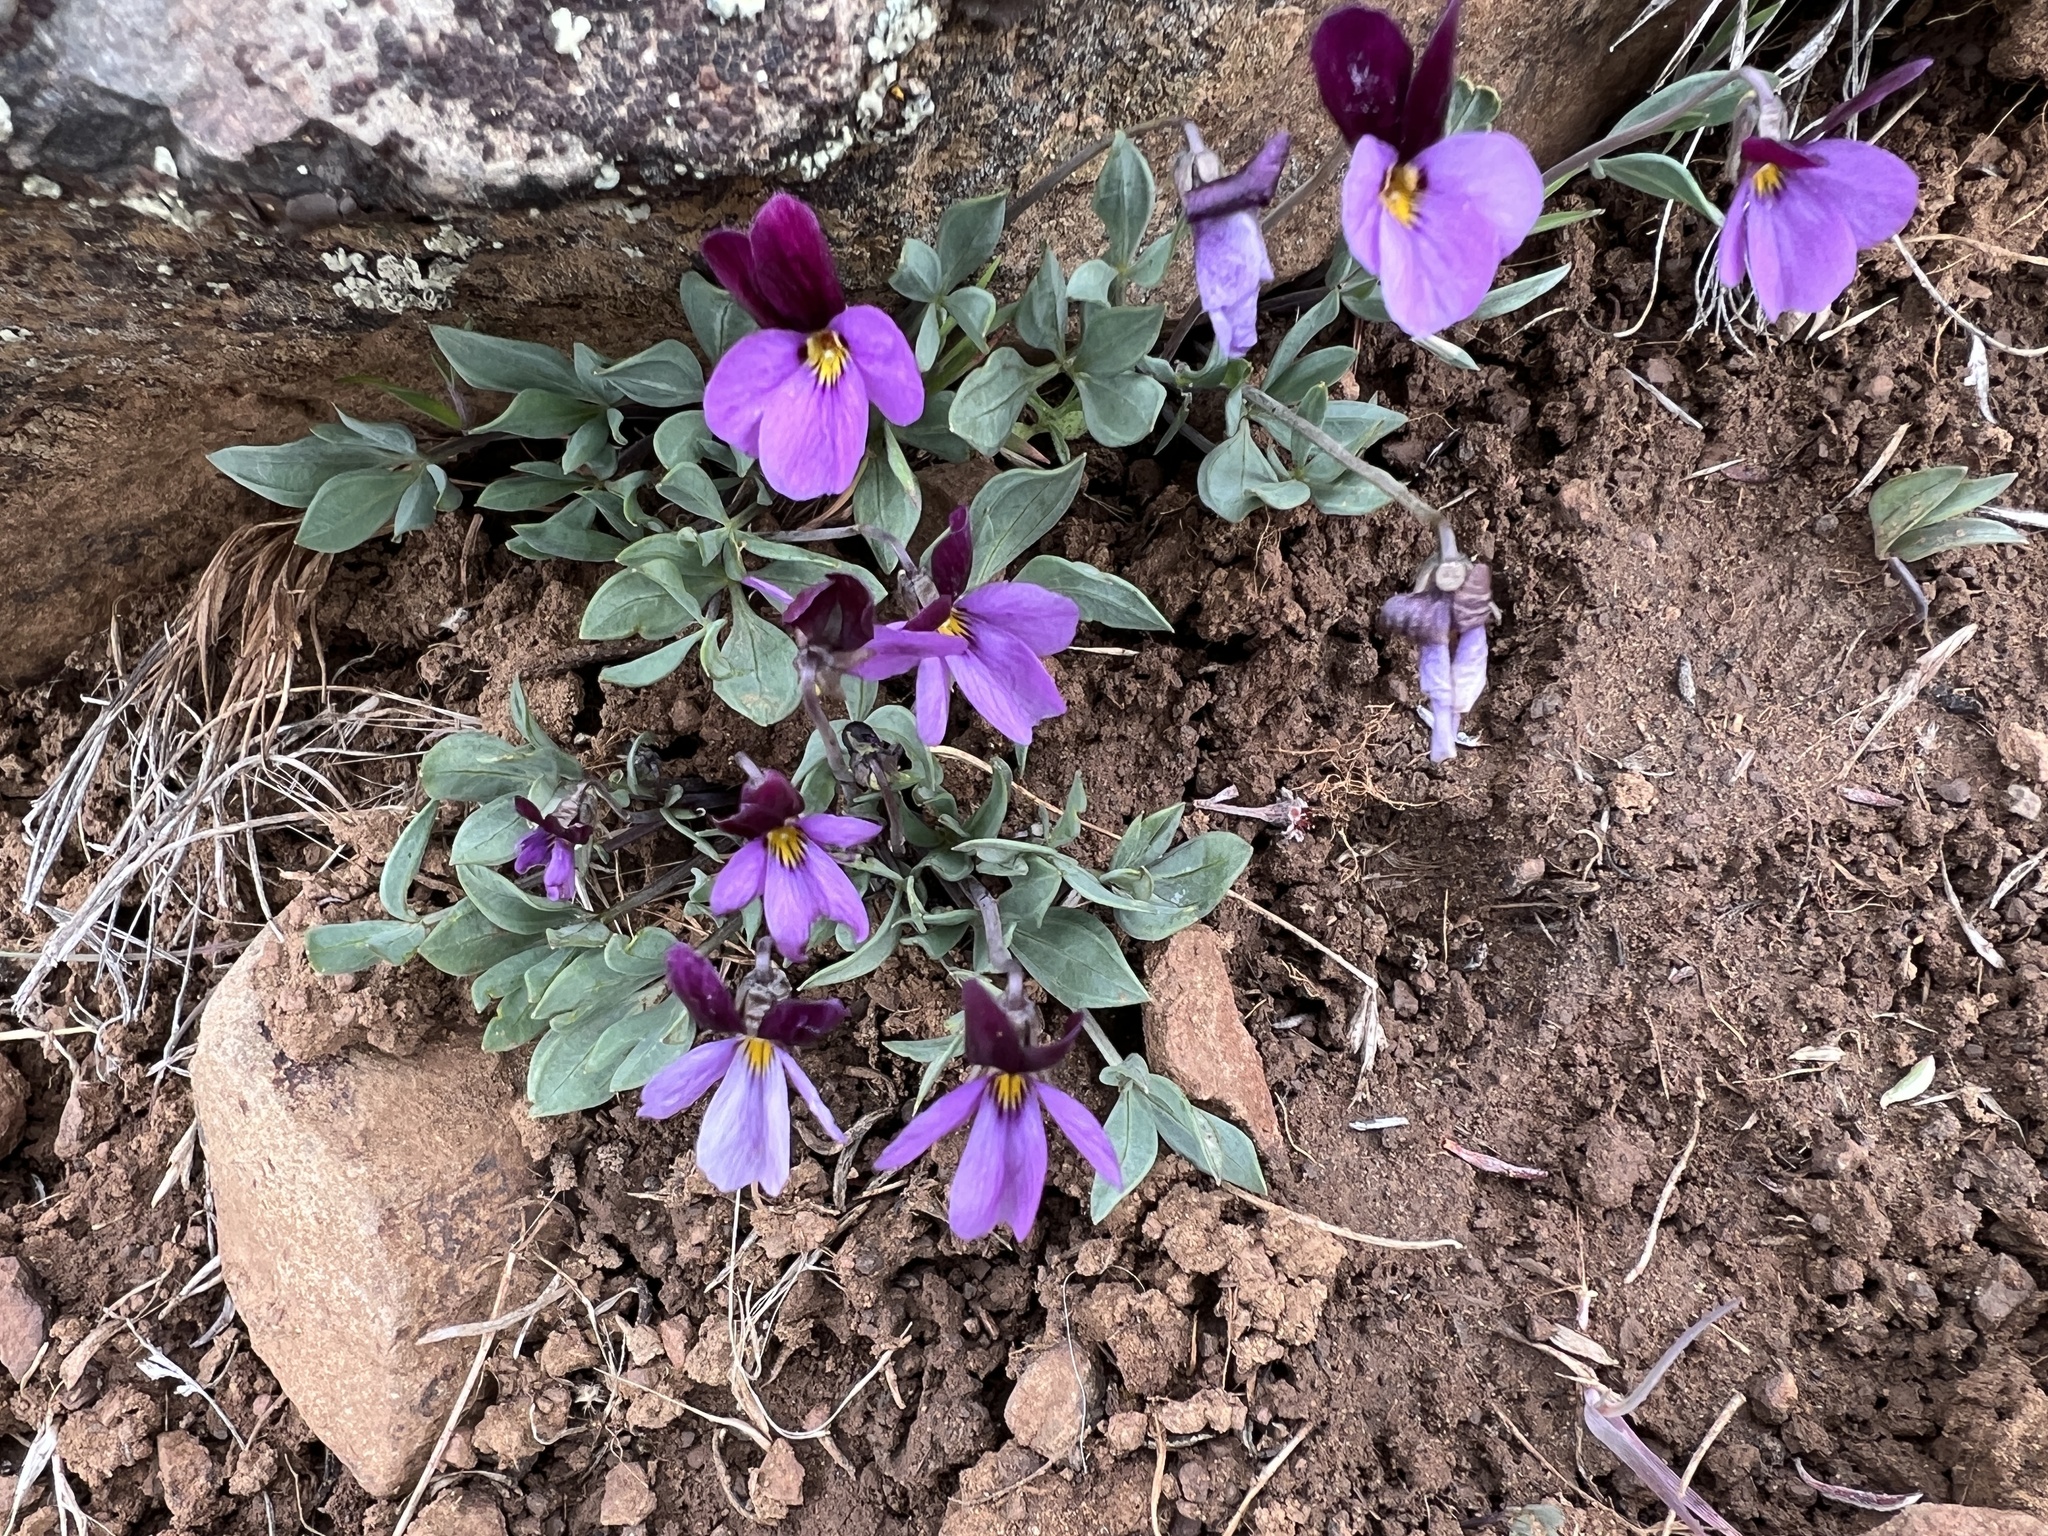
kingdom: Plantae
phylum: Tracheophyta
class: Magnoliopsida
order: Malpighiales
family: Violaceae
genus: Viola
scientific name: Viola trinervata
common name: Sagebrush violet
